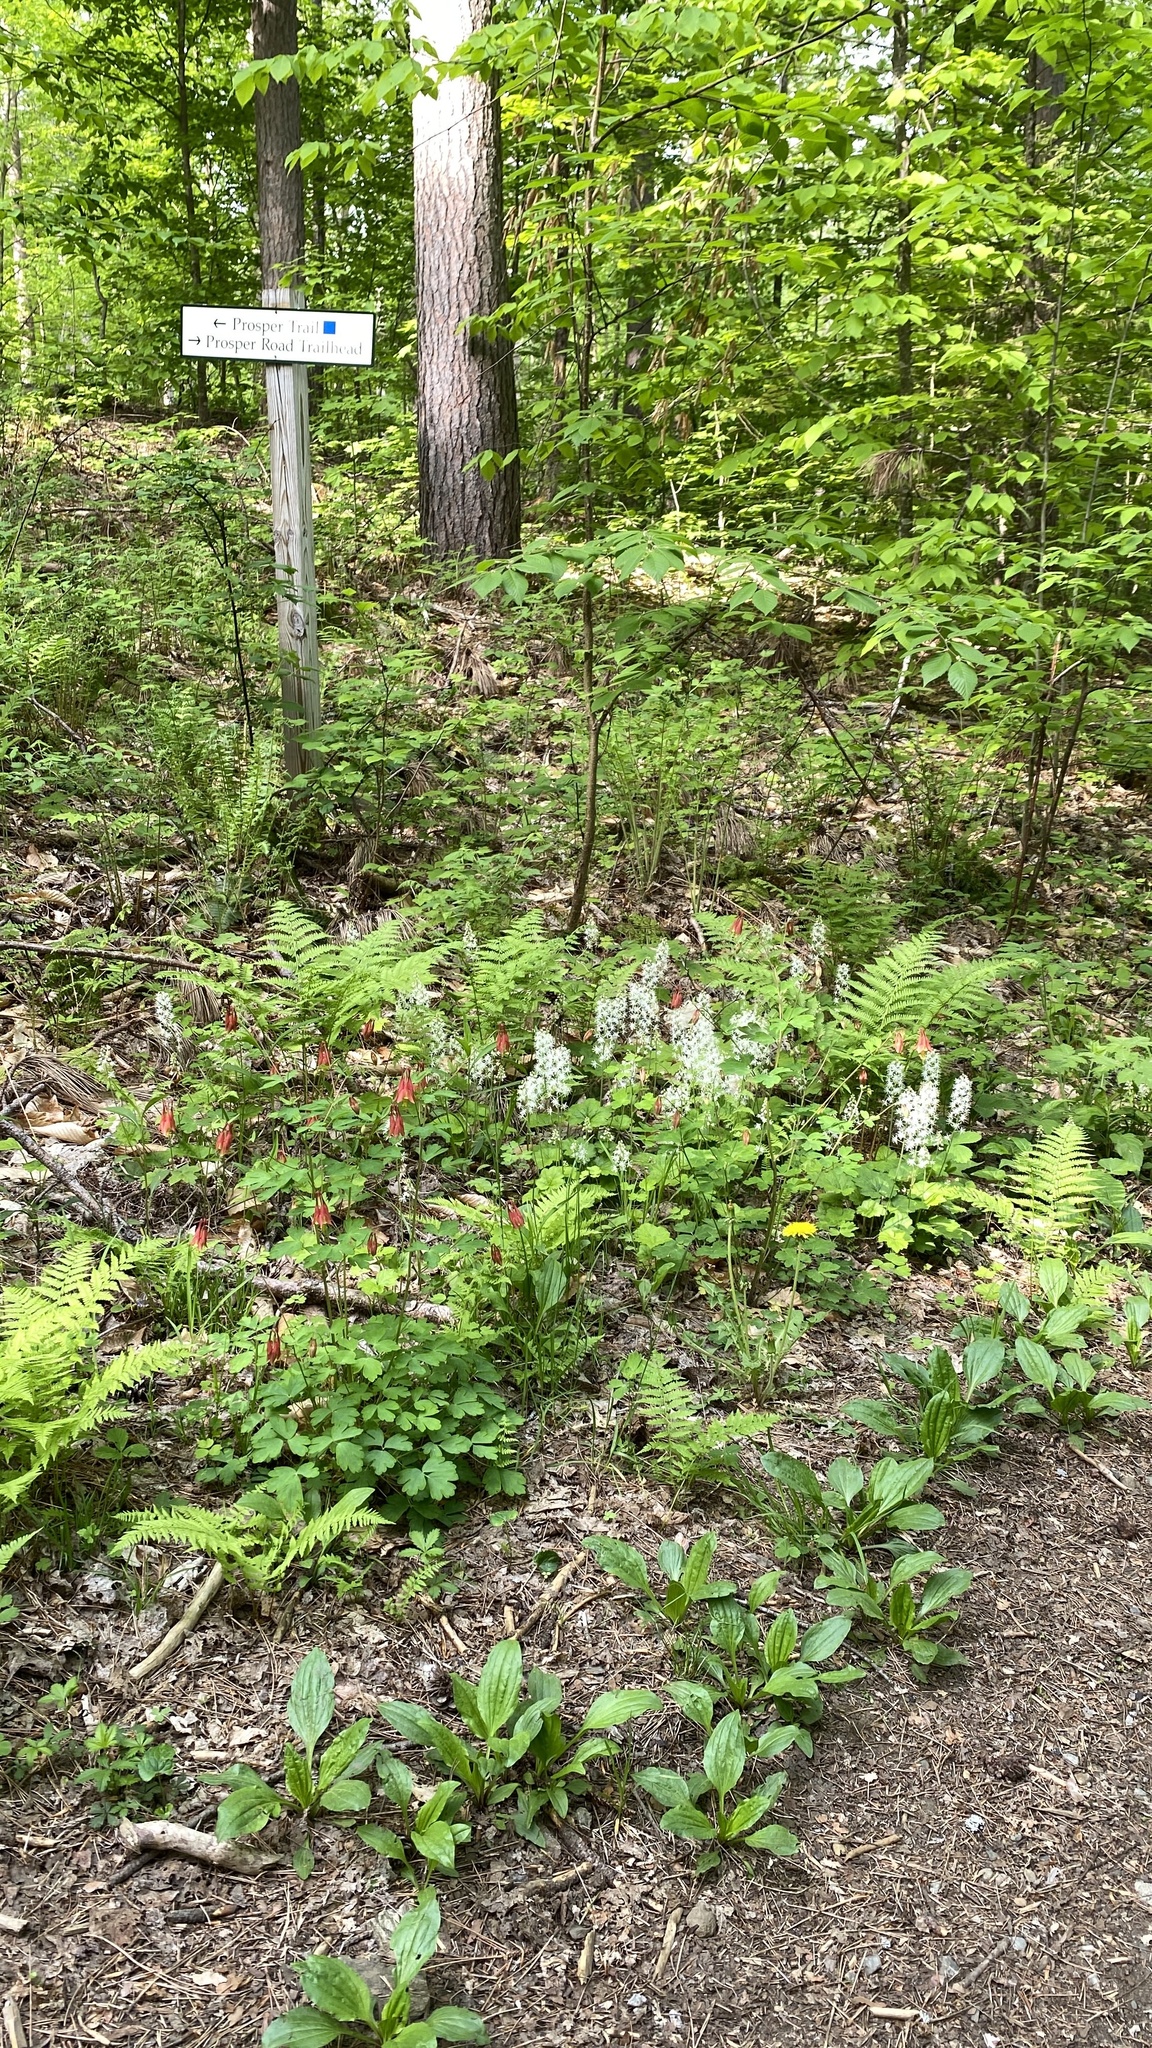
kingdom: Plantae
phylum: Tracheophyta
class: Magnoliopsida
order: Saxifragales
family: Saxifragaceae
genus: Tiarella
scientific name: Tiarella stolonifera
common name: Stoloniferous foamflower
